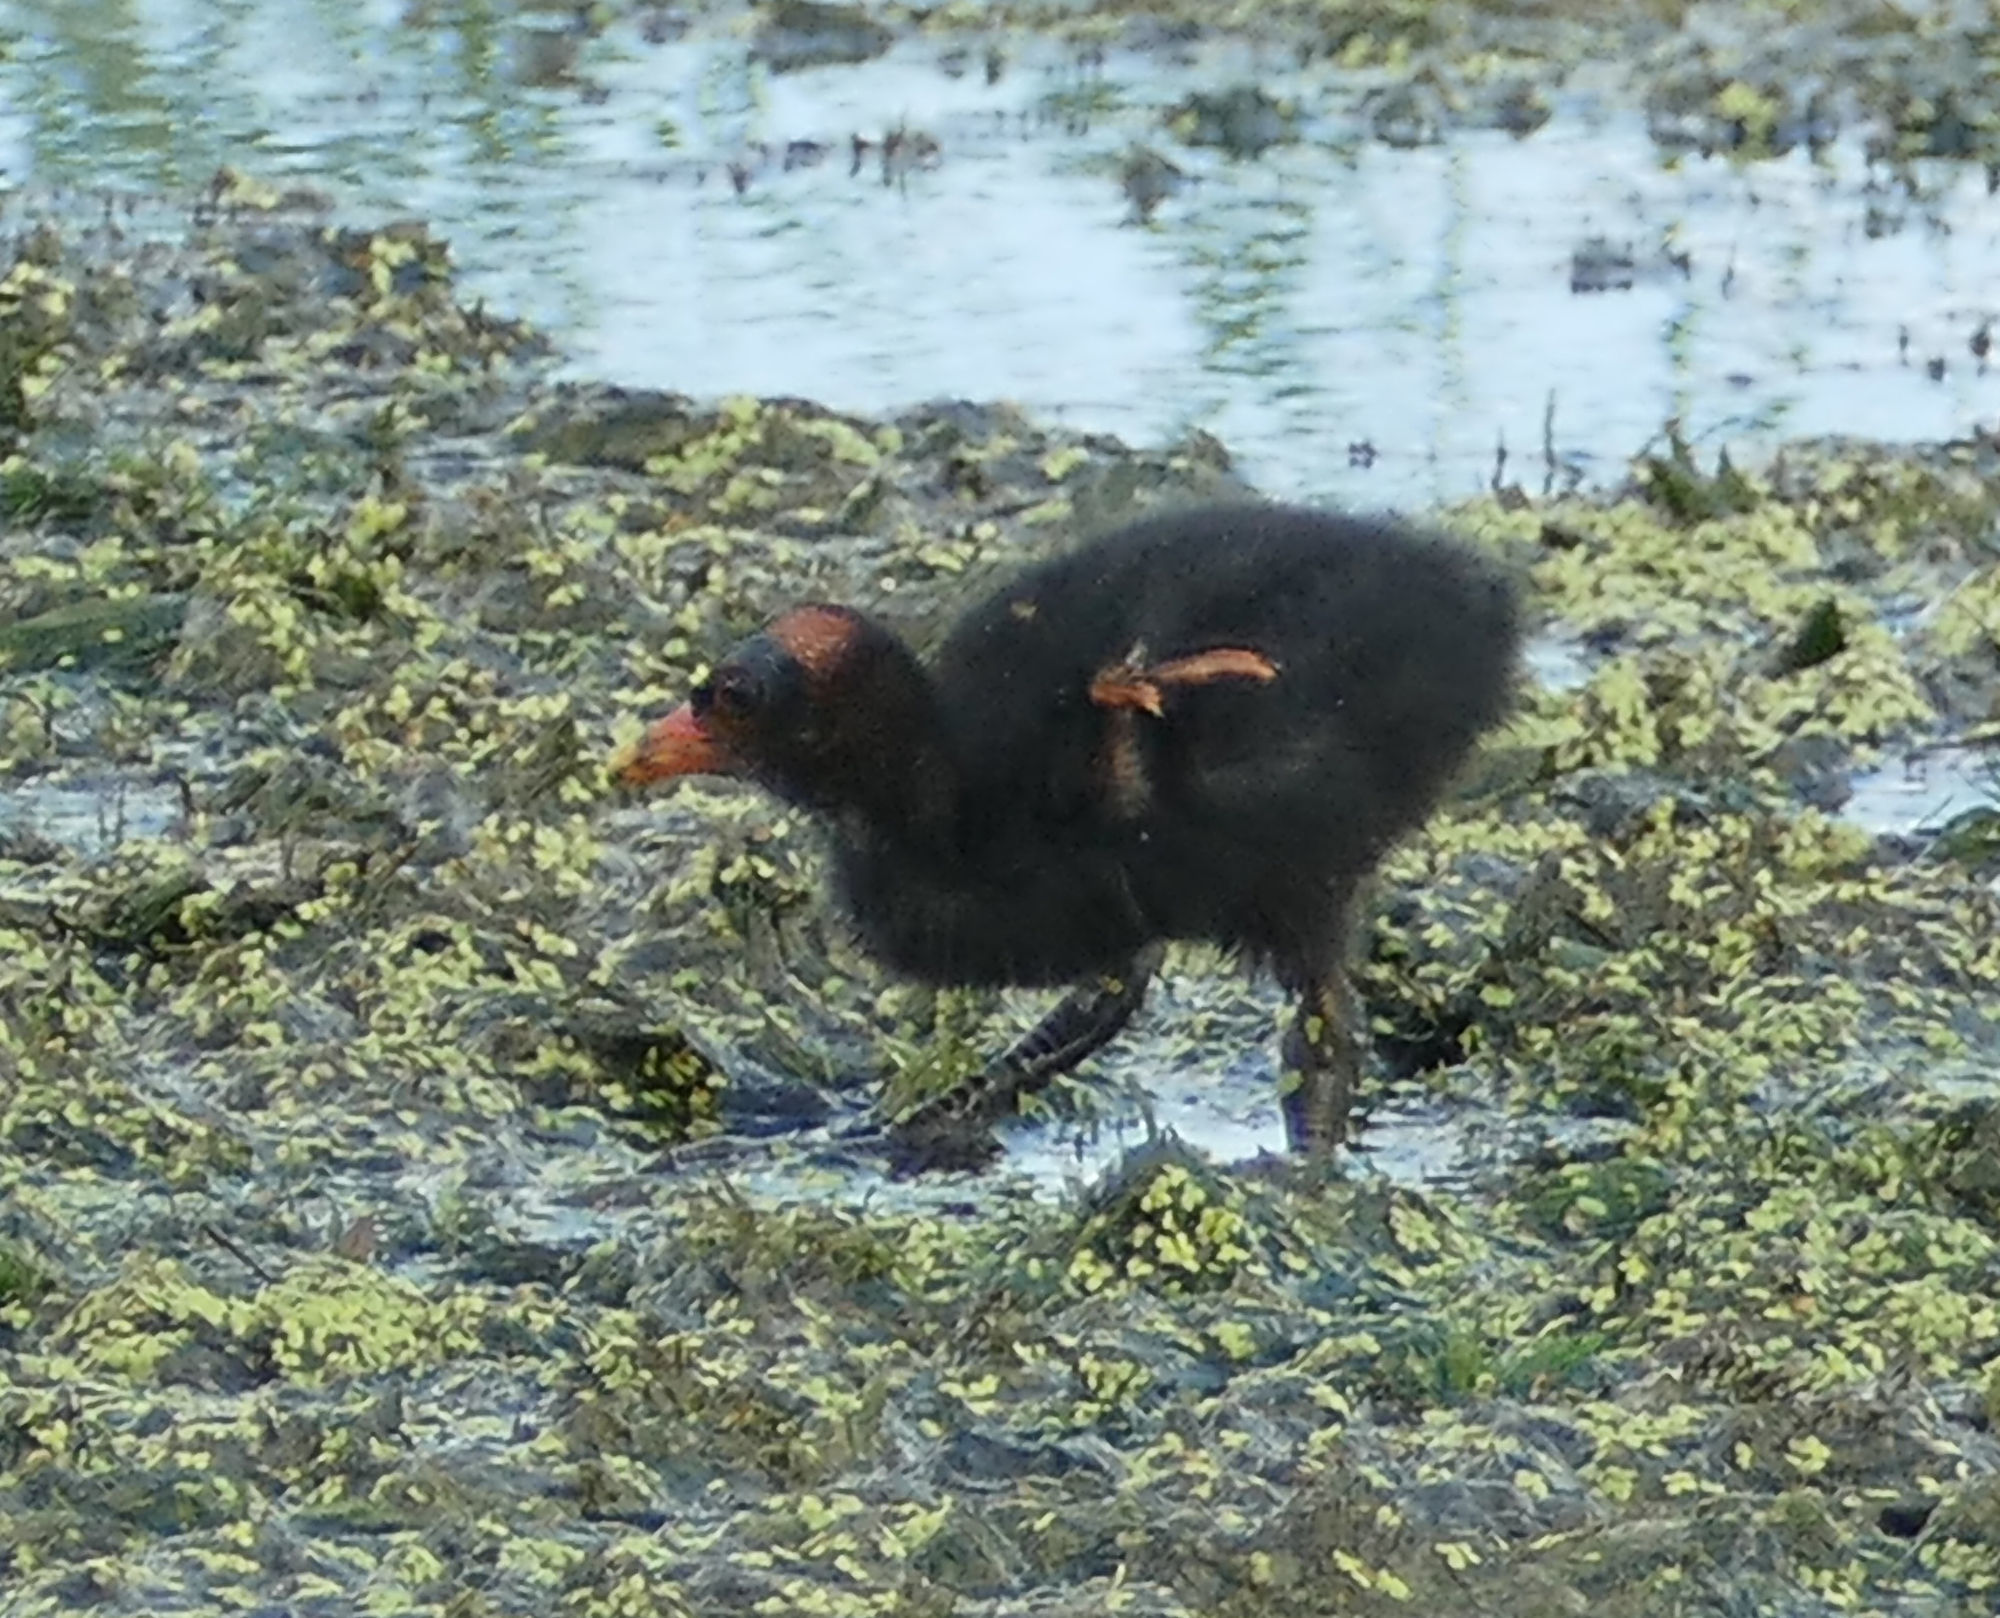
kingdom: Animalia
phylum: Chordata
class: Aves
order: Gruiformes
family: Rallidae
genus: Gallinula
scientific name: Gallinula chloropus
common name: Common moorhen
